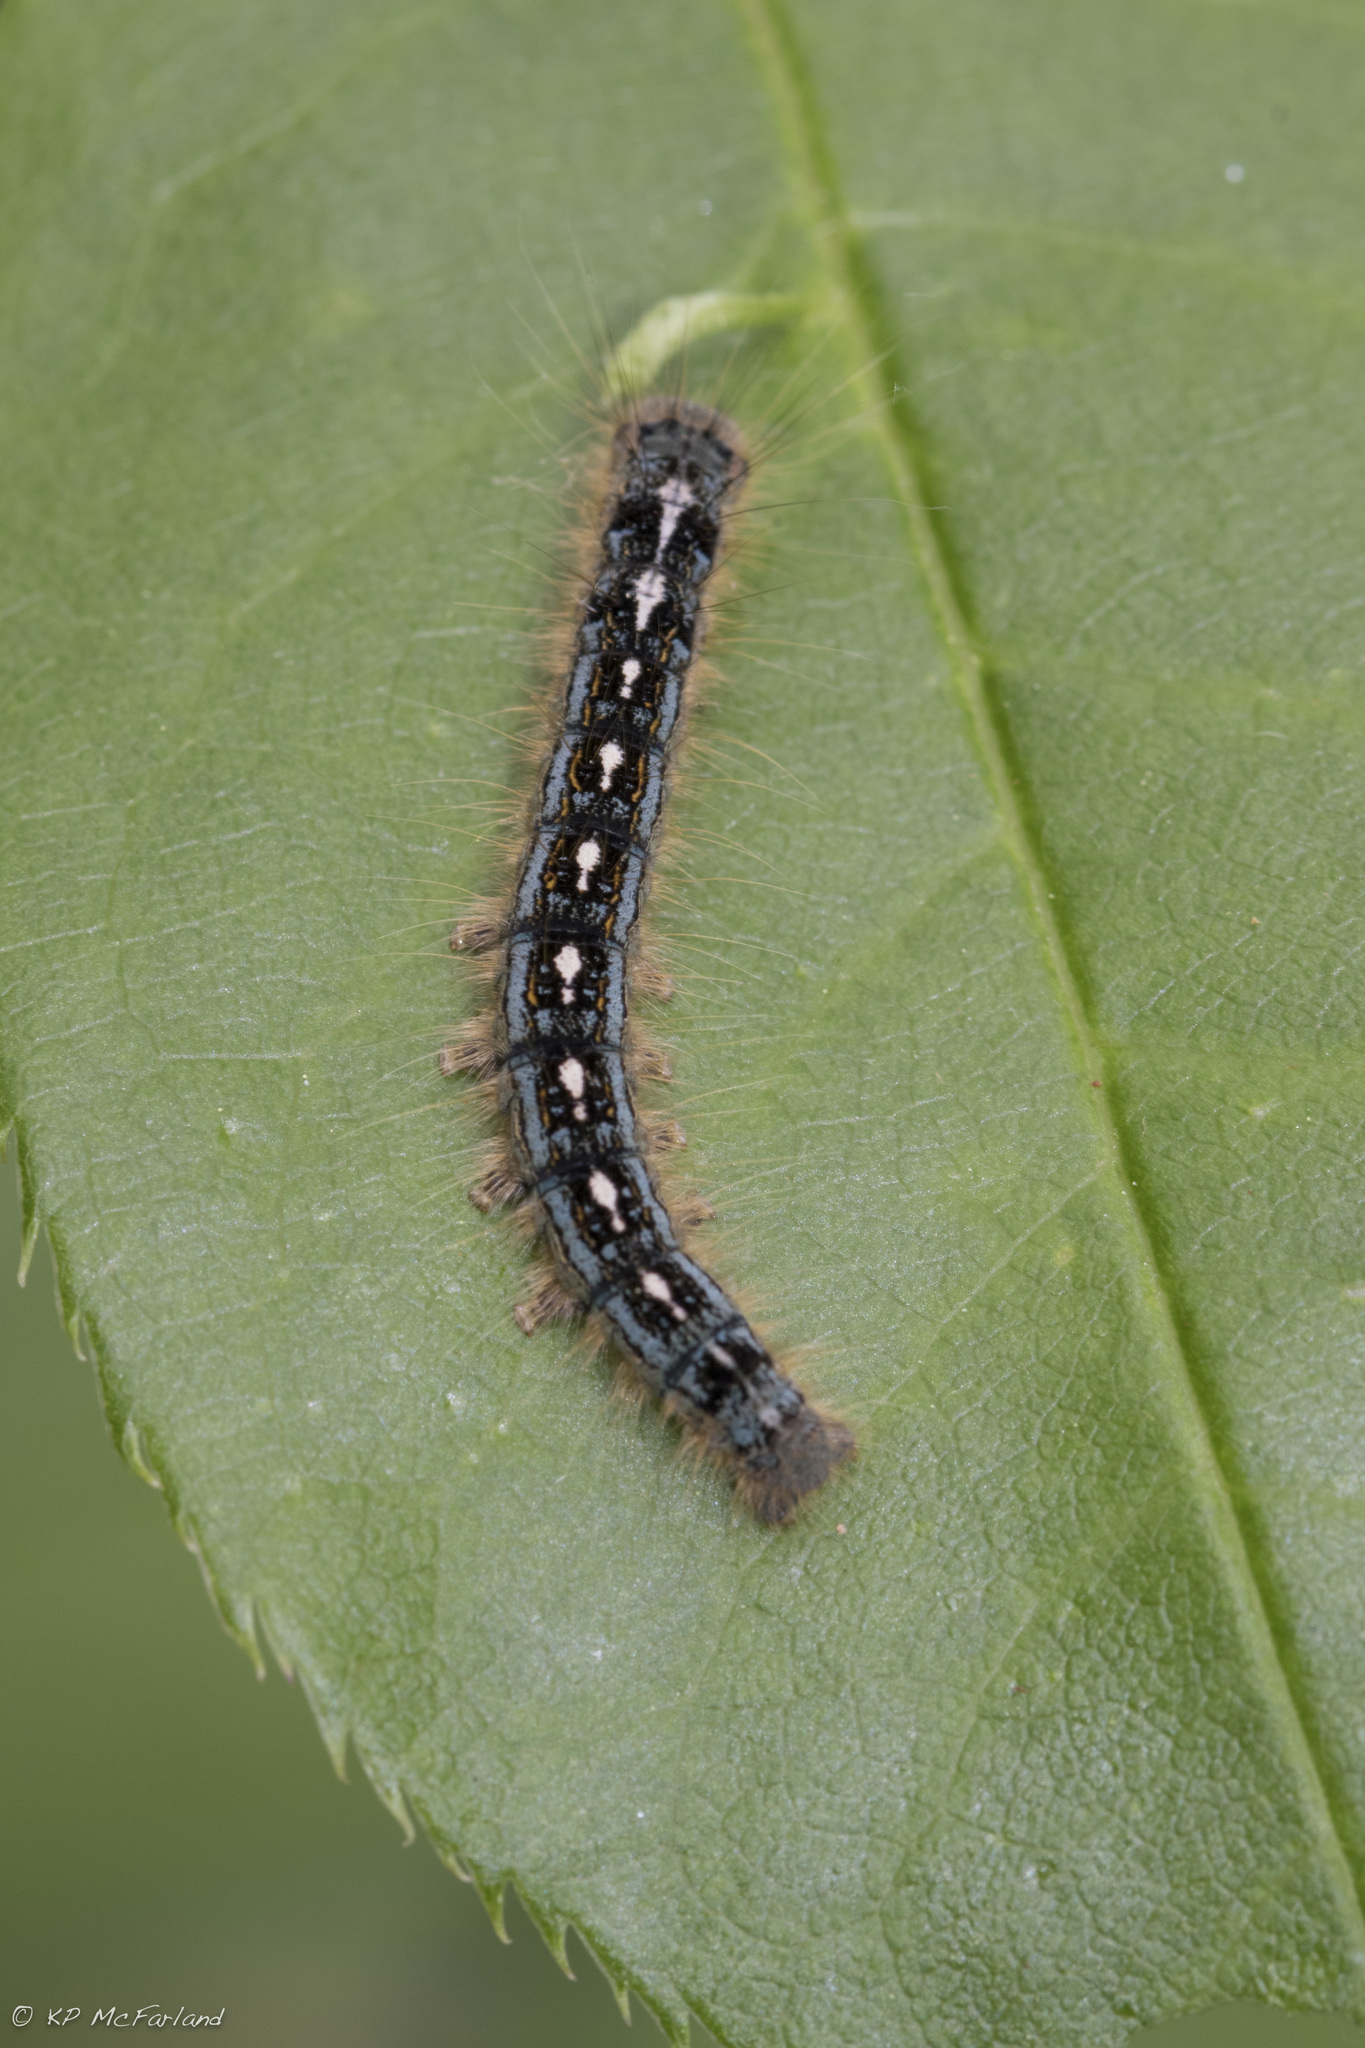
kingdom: Animalia
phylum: Arthropoda
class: Insecta
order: Lepidoptera
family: Lasiocampidae
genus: Malacosoma
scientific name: Malacosoma disstria
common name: Forest tent caterpillar
